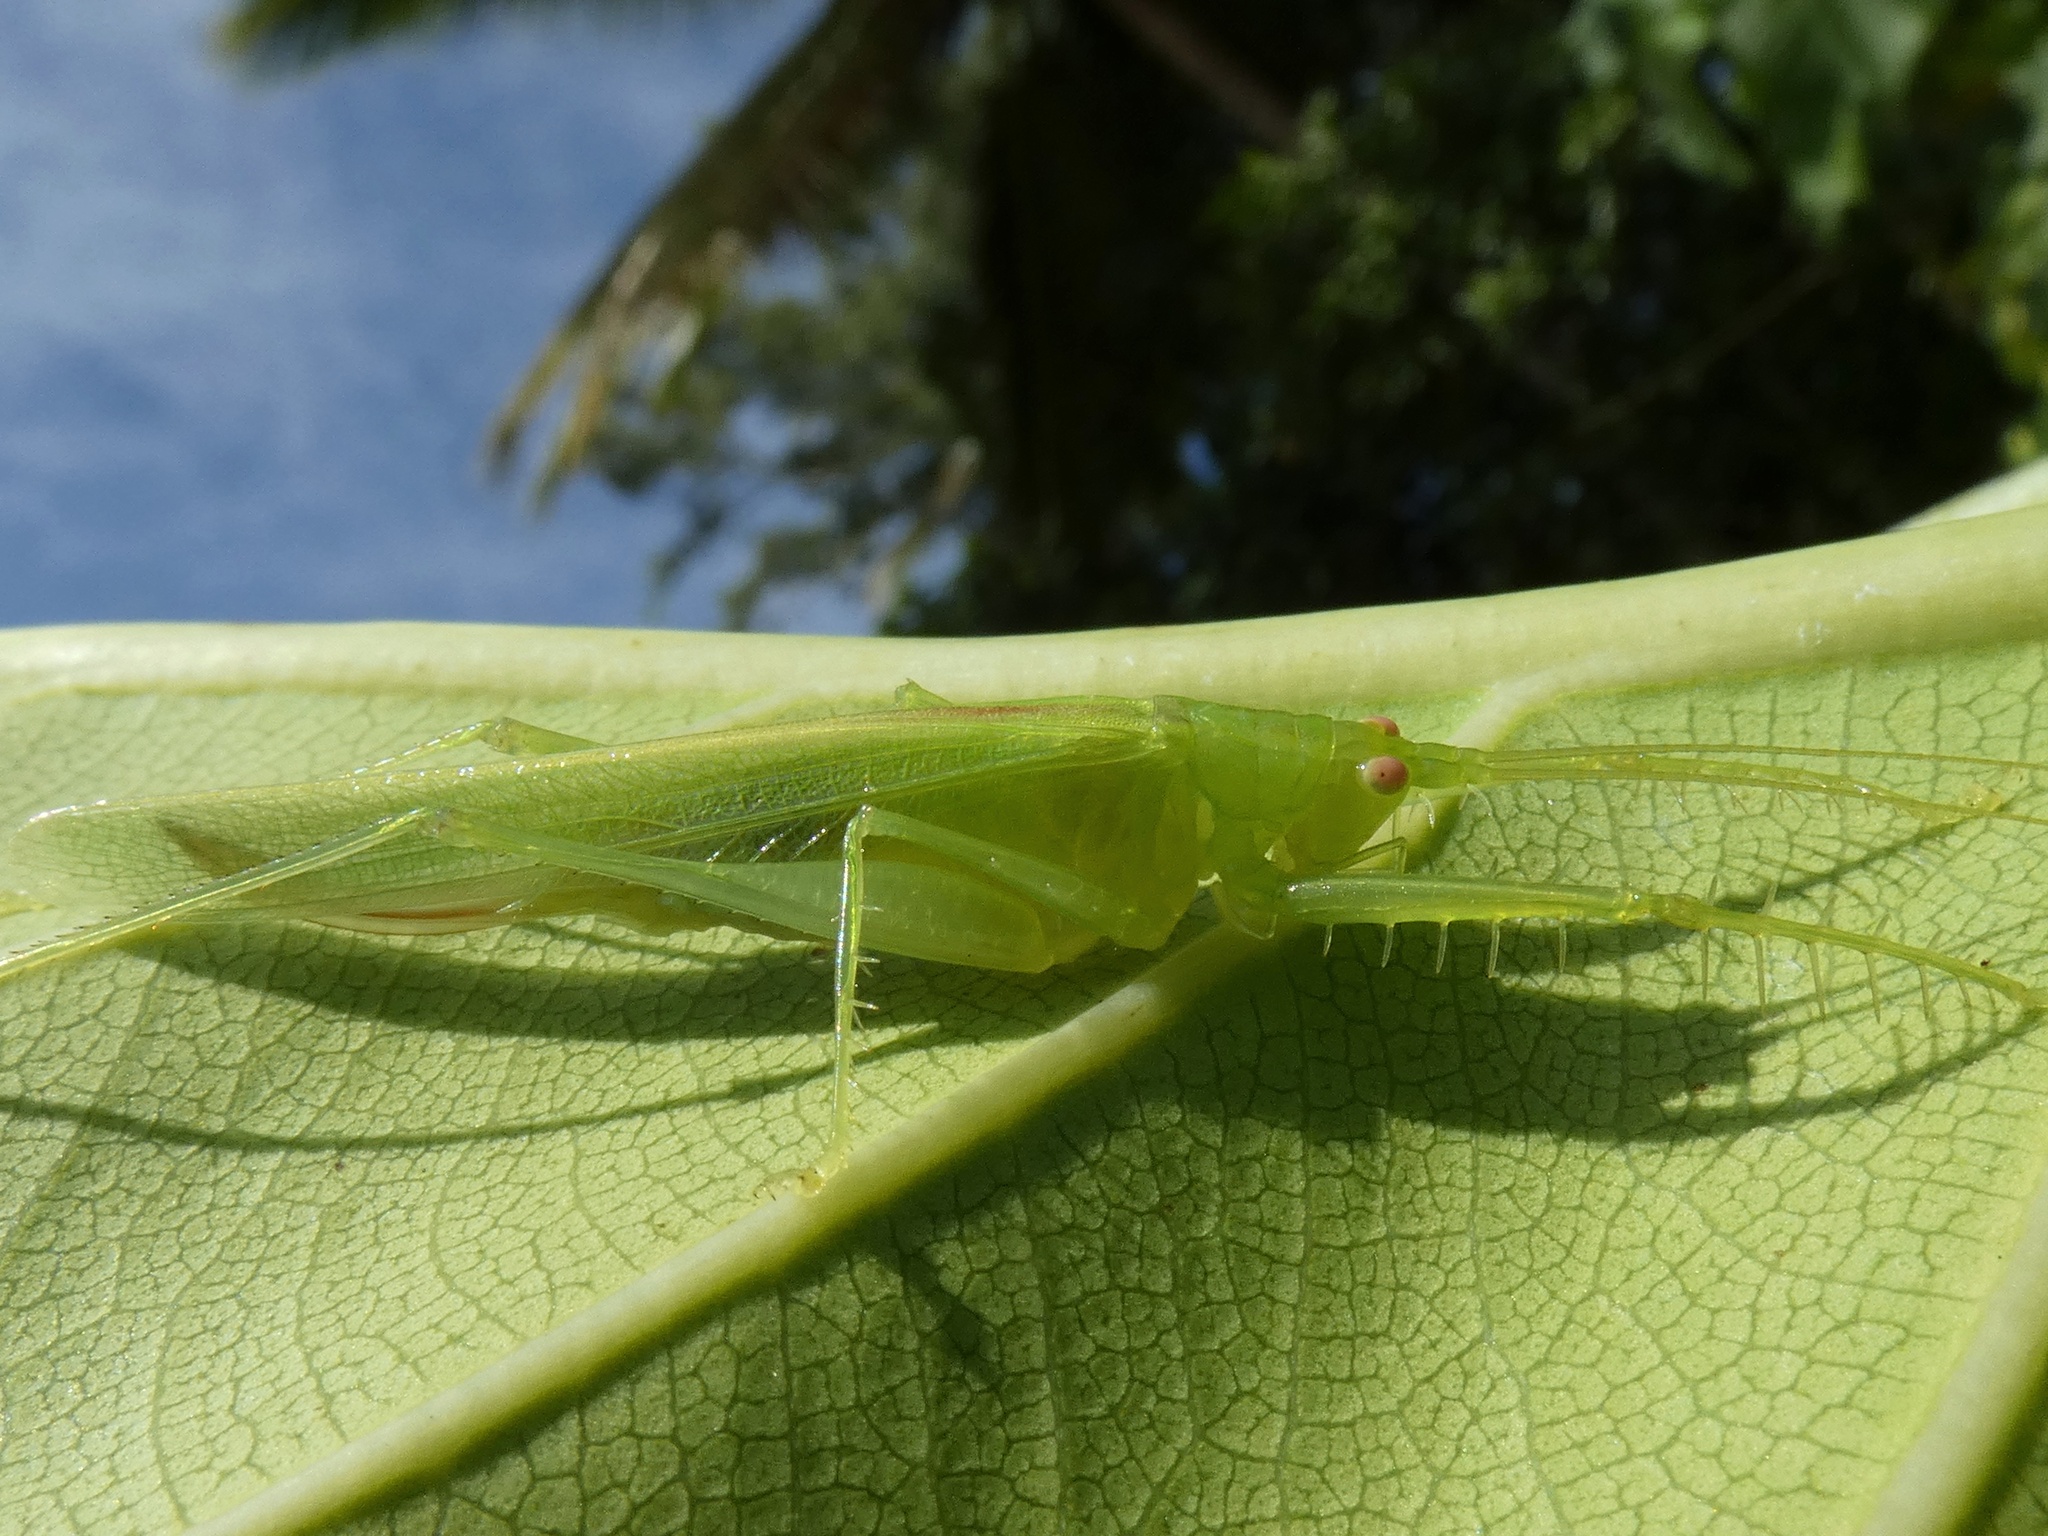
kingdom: Animalia
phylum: Arthropoda
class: Insecta
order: Orthoptera
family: Tettigoniidae
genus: Phisis
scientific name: Phisis jinae
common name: Jin's robust spider katydid
